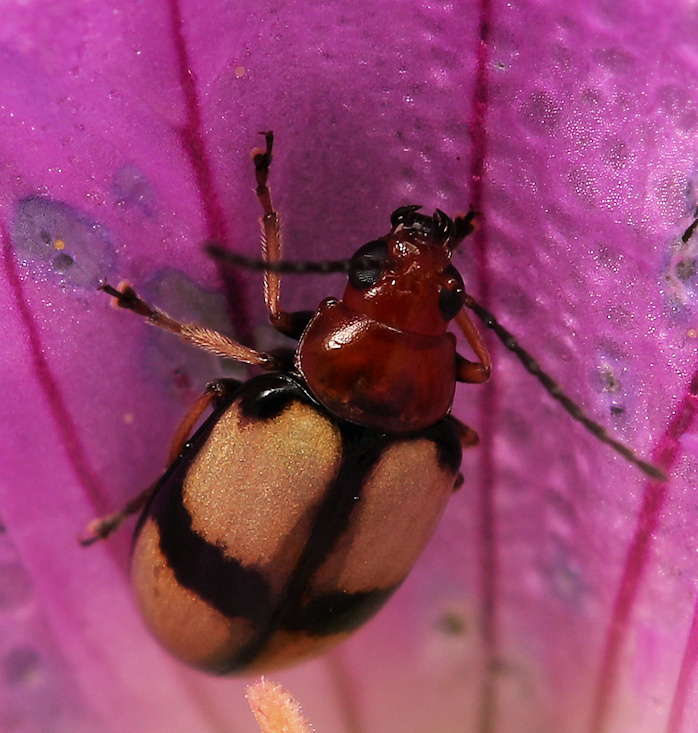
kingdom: Animalia
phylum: Arthropoda
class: Insecta
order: Coleoptera
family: Chrysomelidae
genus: Monolepta
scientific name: Monolepta
